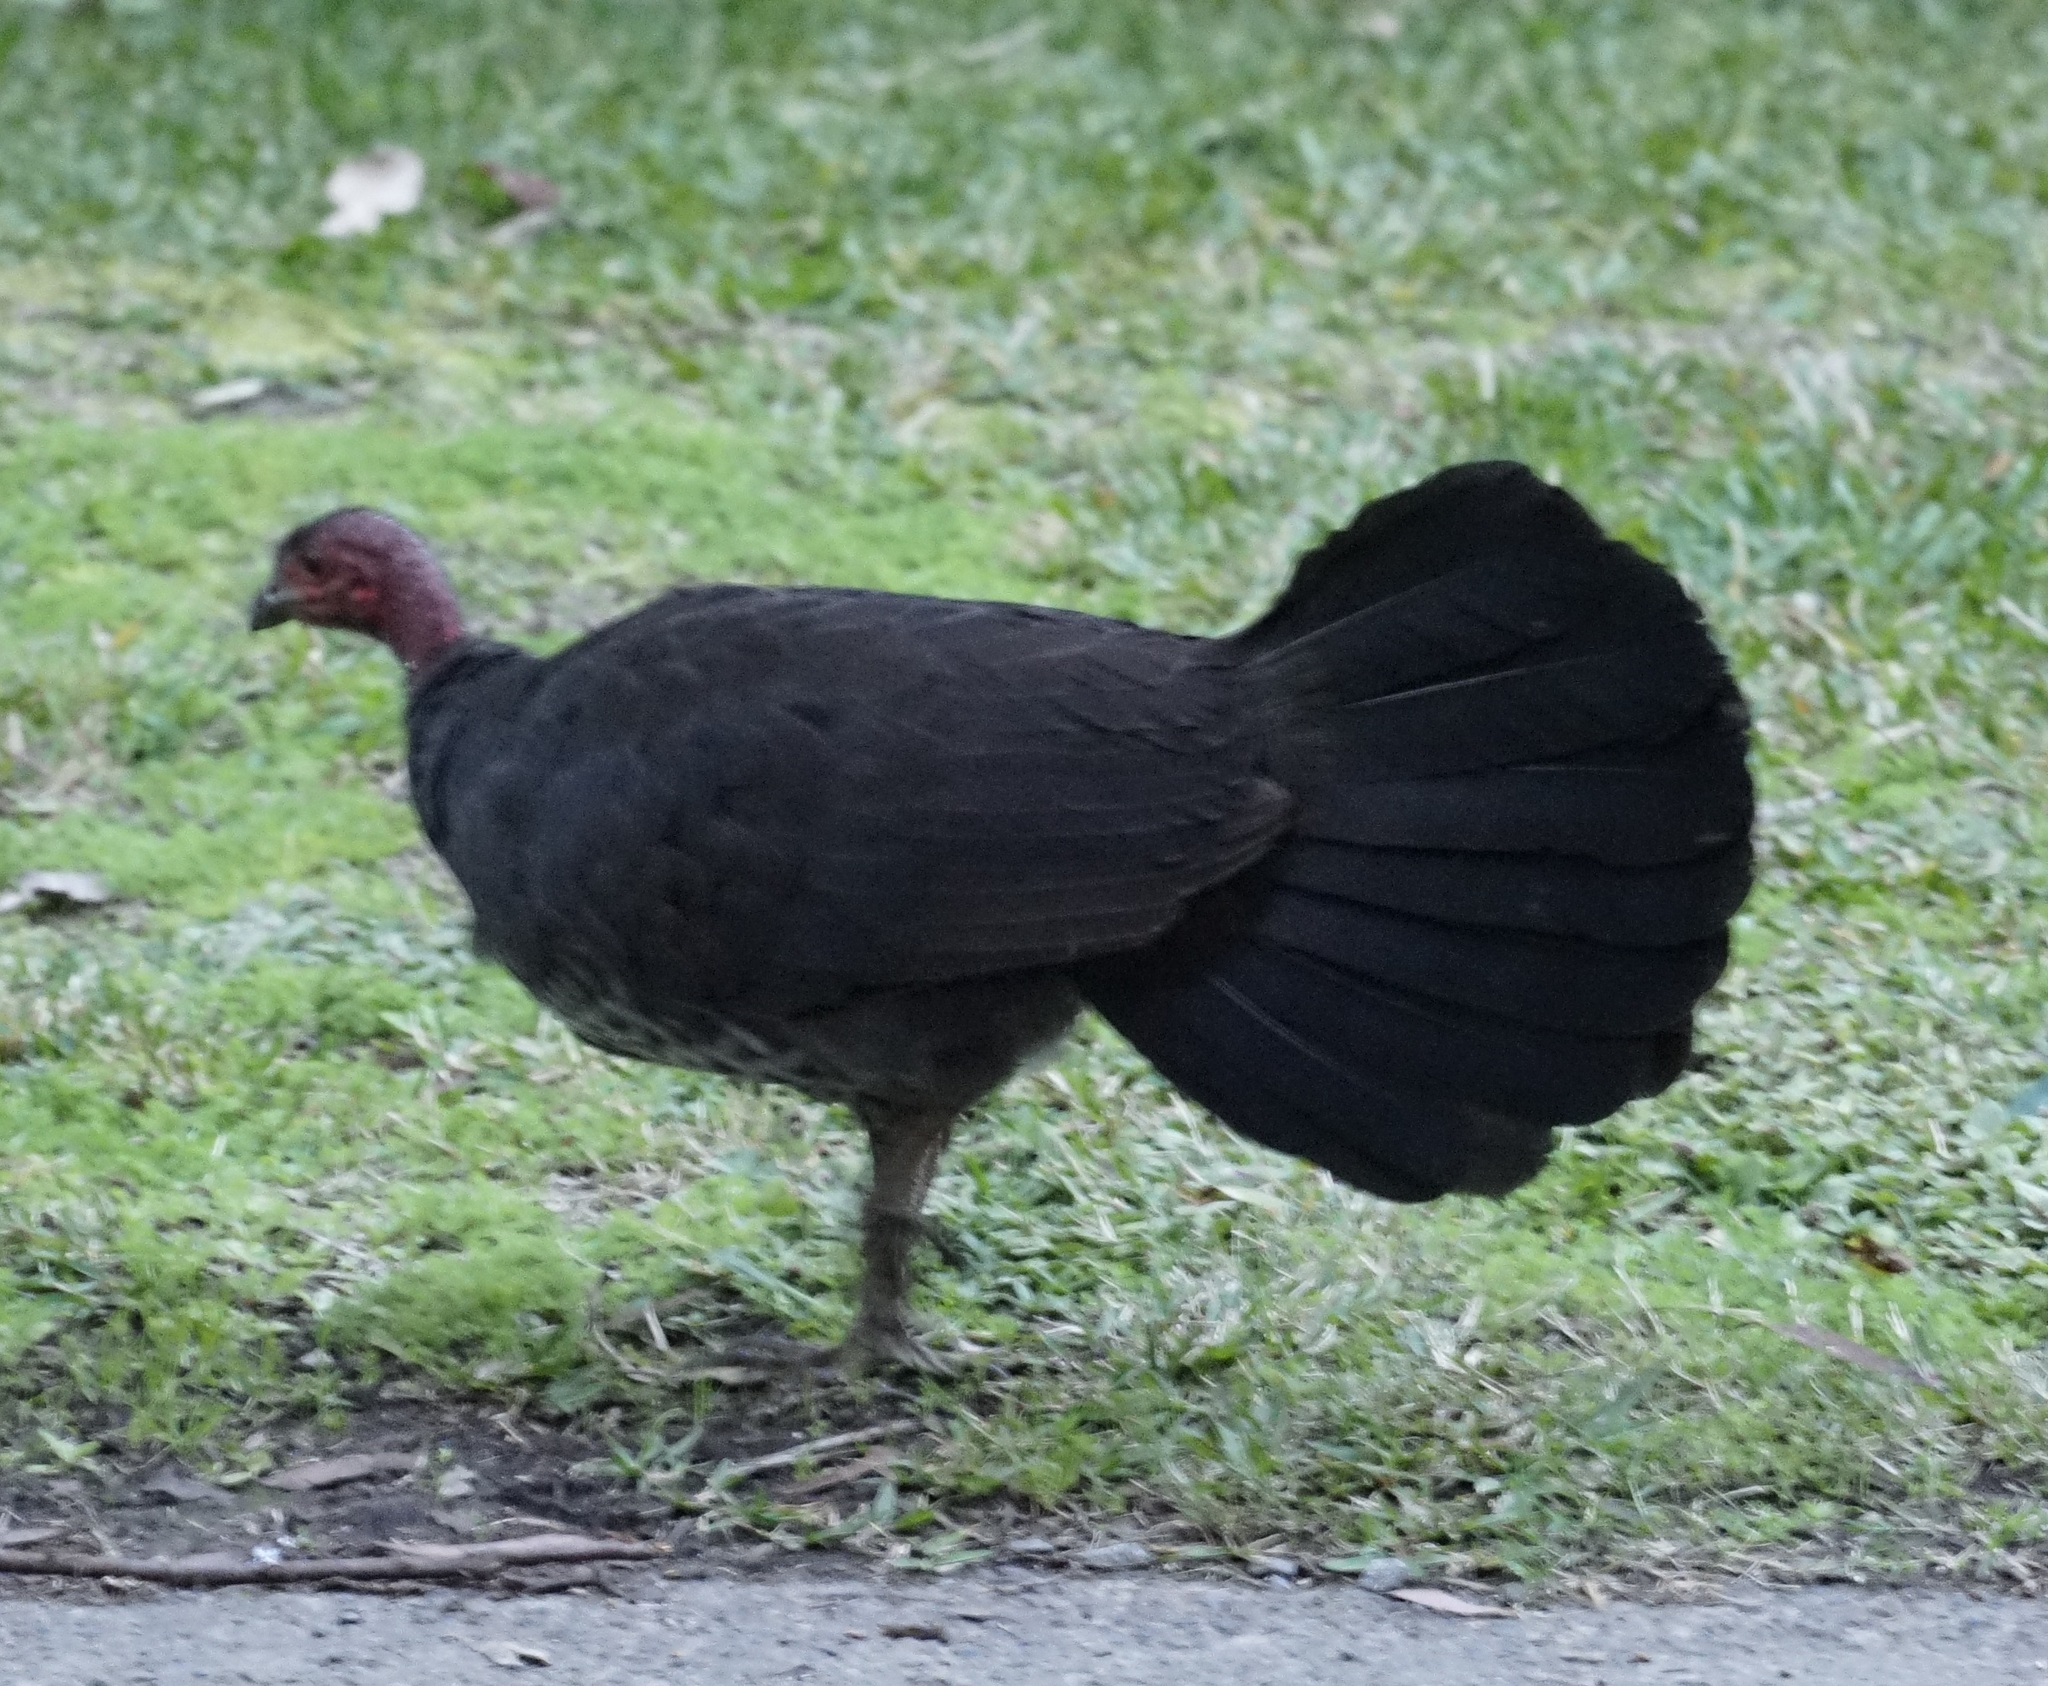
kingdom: Animalia
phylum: Chordata
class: Aves
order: Galliformes
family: Megapodiidae
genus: Alectura
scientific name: Alectura lathami
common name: Australian brushturkey
